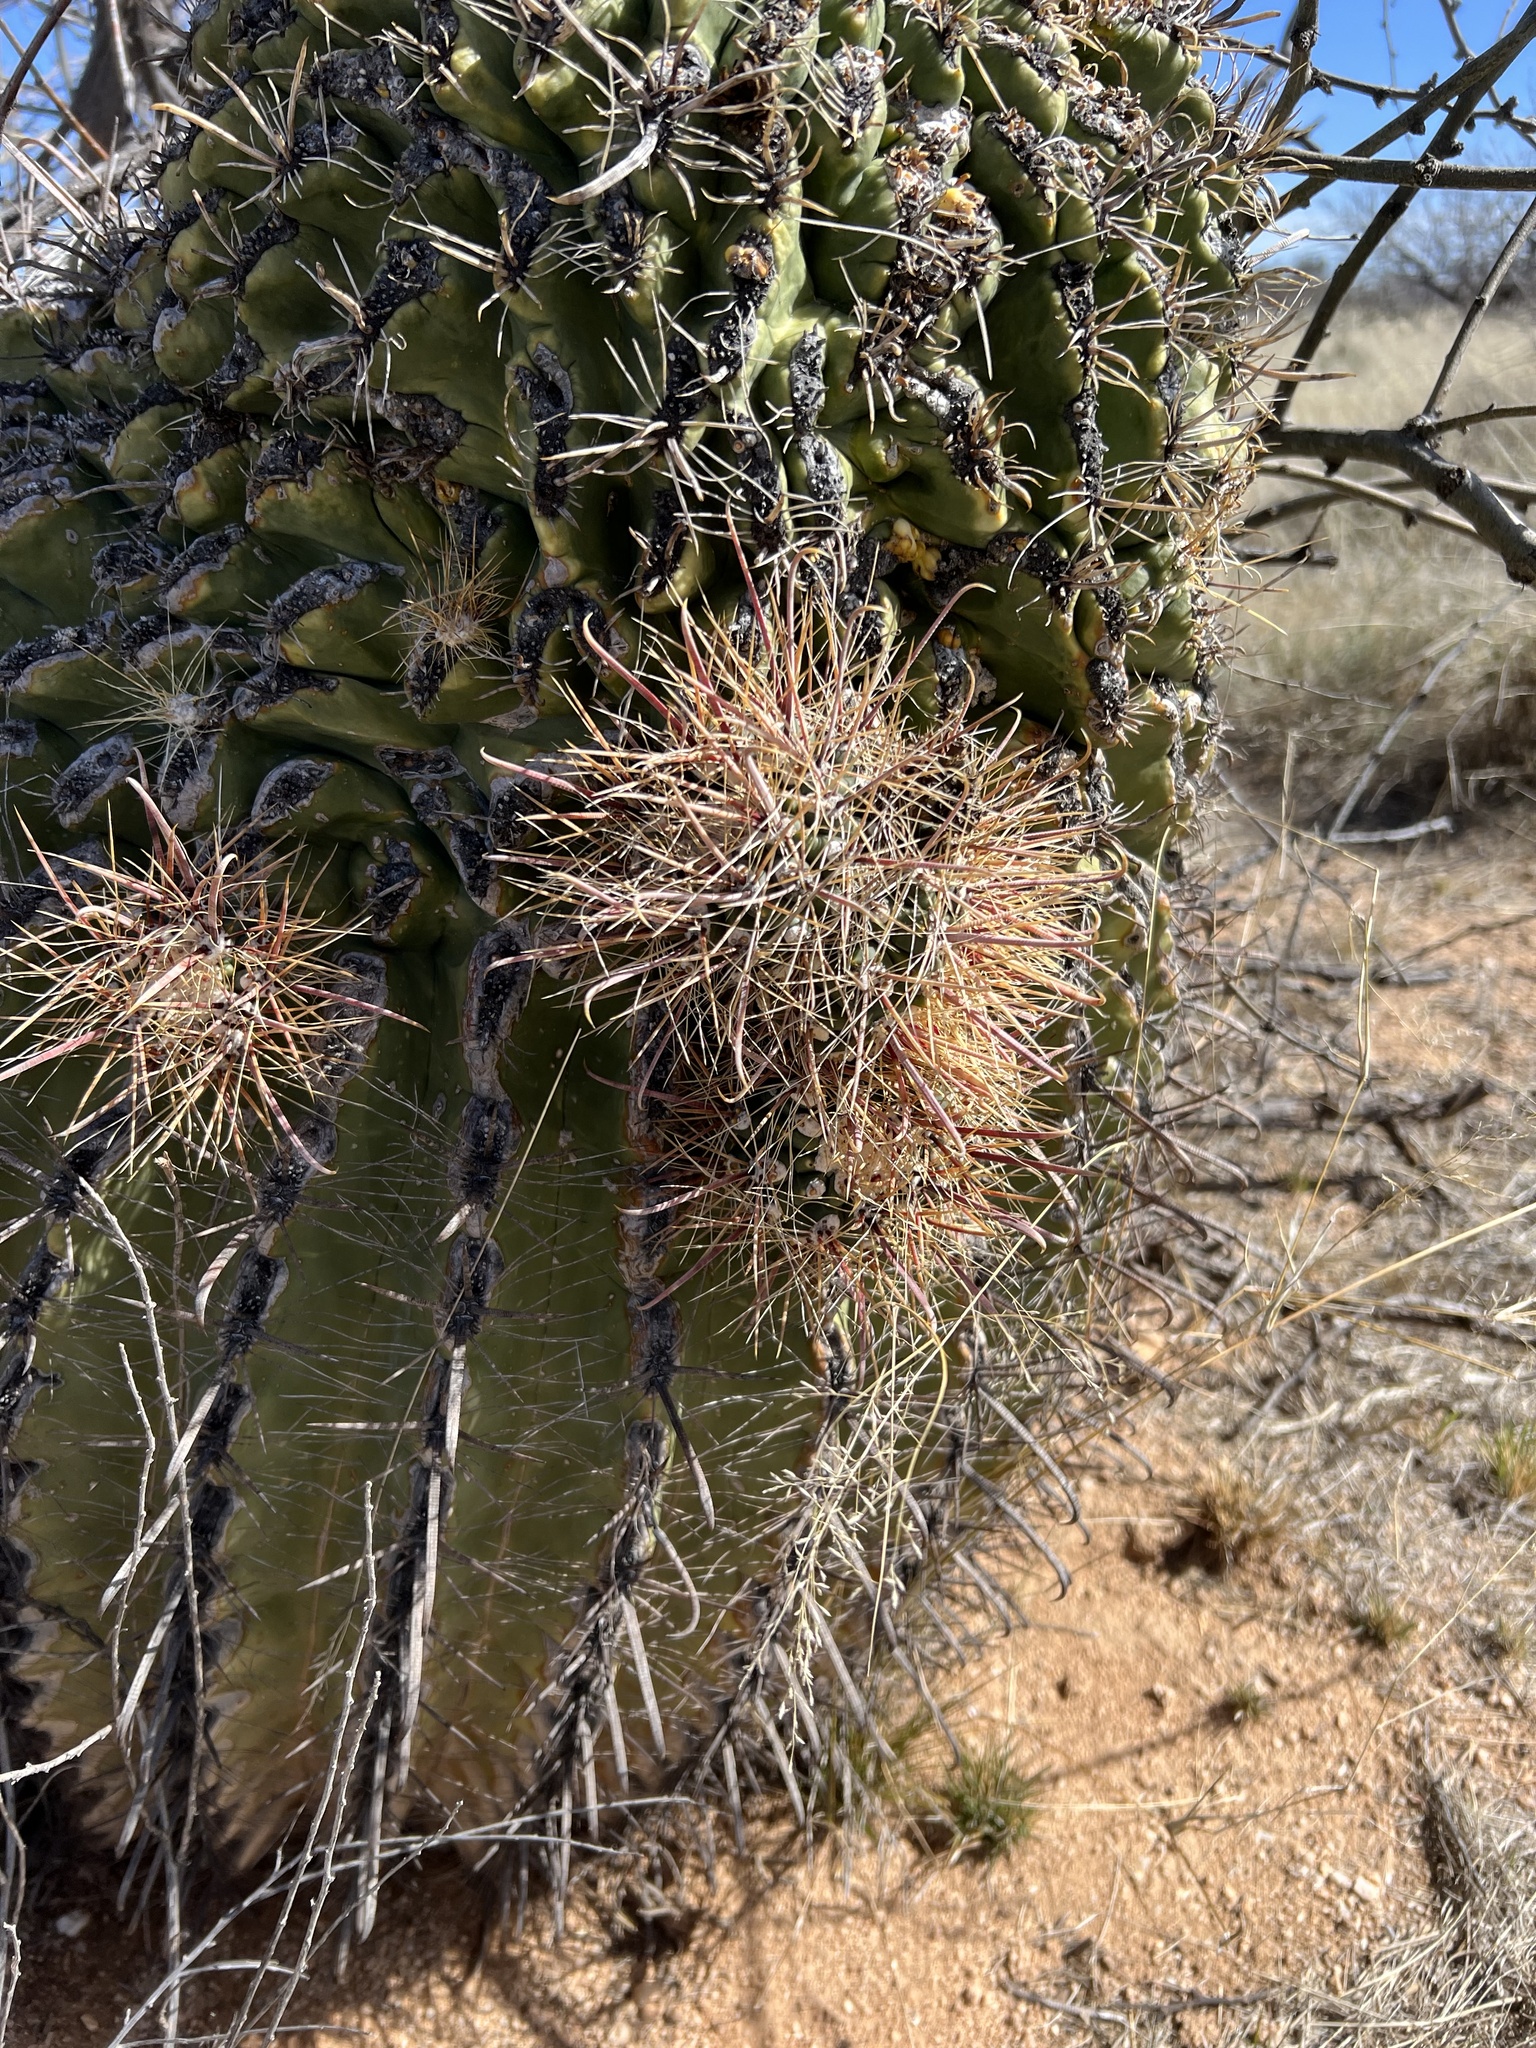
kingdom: Plantae
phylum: Tracheophyta
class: Magnoliopsida
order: Caryophyllales
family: Cactaceae
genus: Ferocactus
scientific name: Ferocactus wislizeni
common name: Candy barrel cactus
